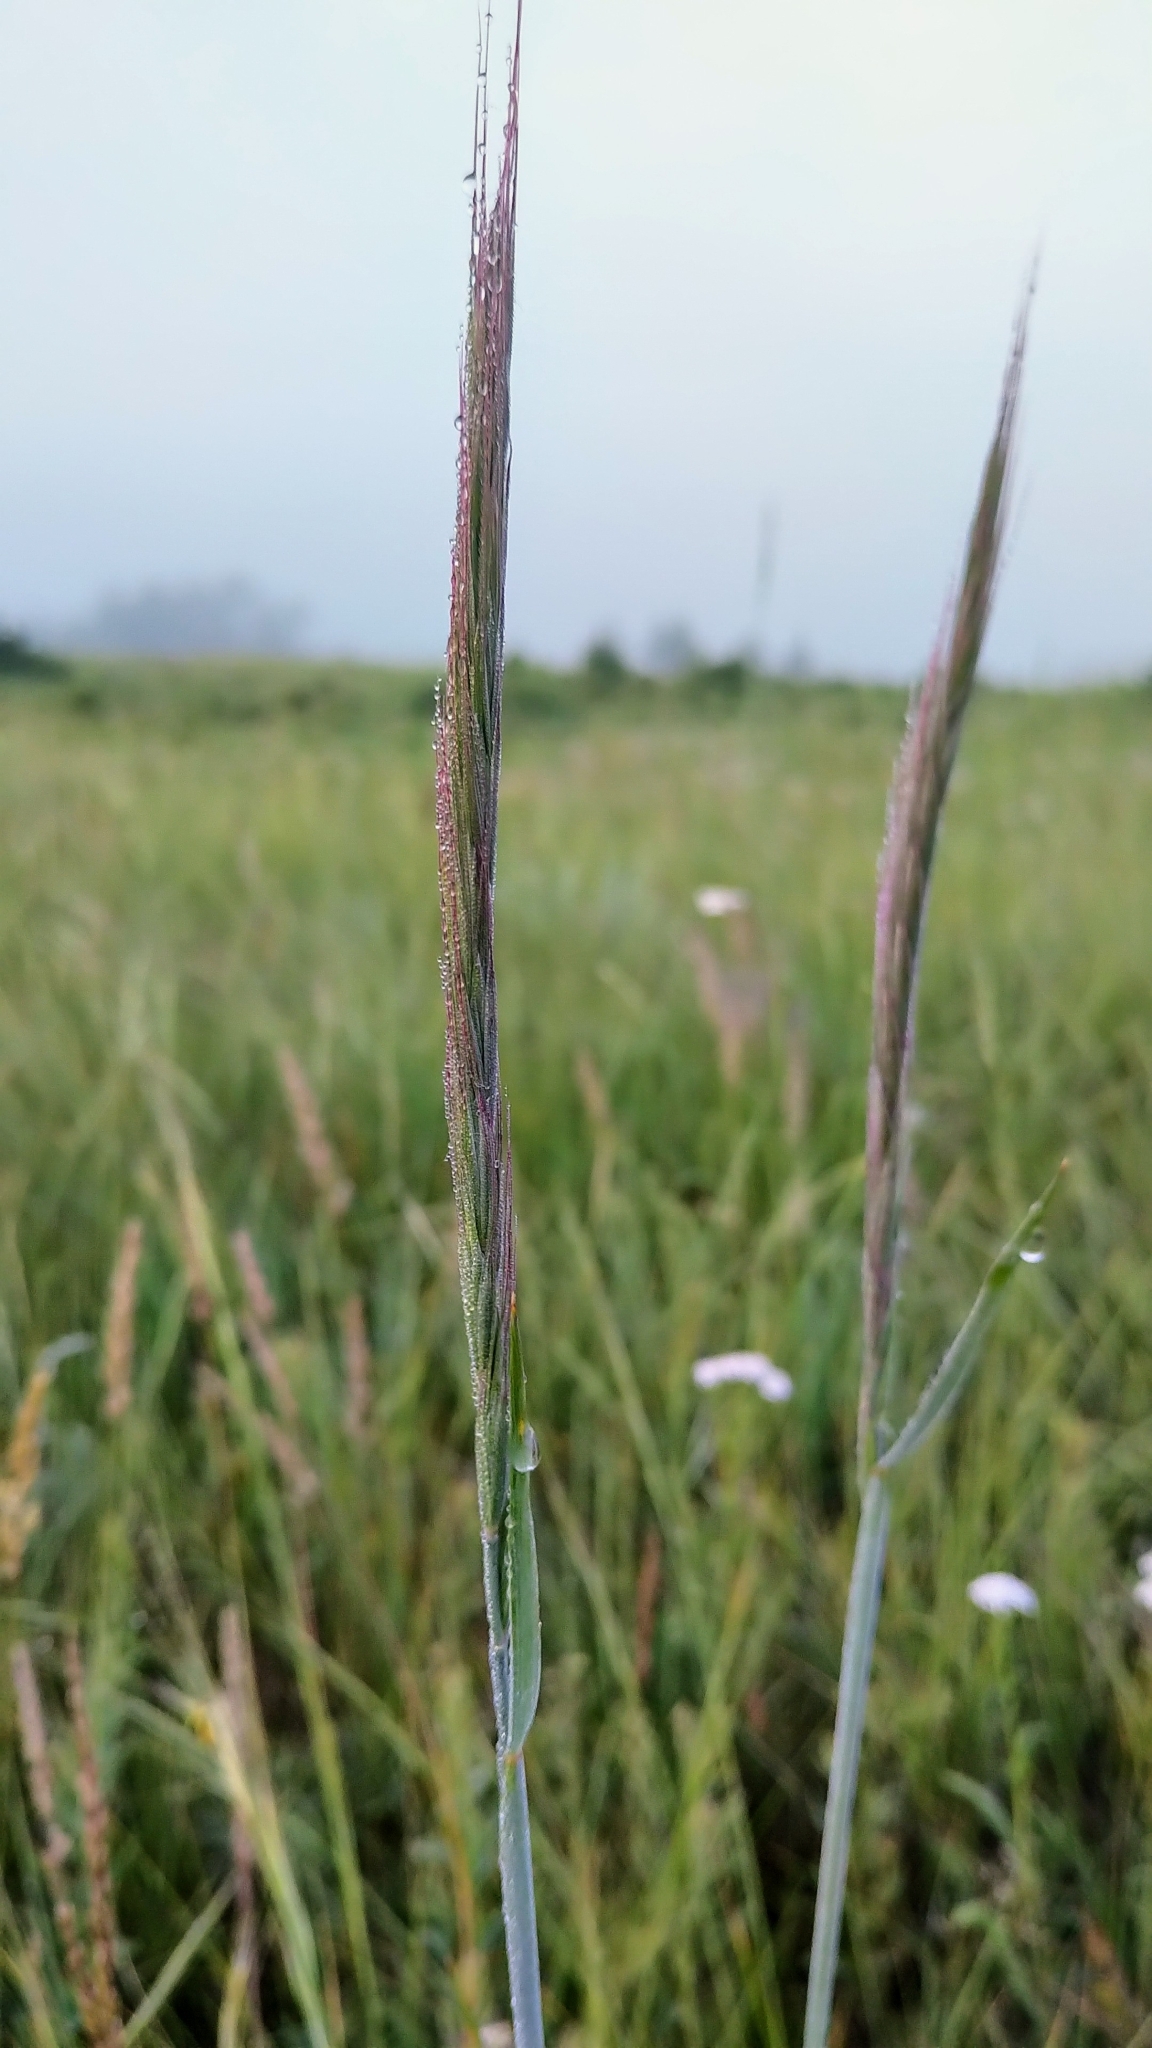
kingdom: Plantae
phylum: Tracheophyta
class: Liliopsida
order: Poales
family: Poaceae
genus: Elymus
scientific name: Elymus violaceus
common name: Arctic wheatgrass
